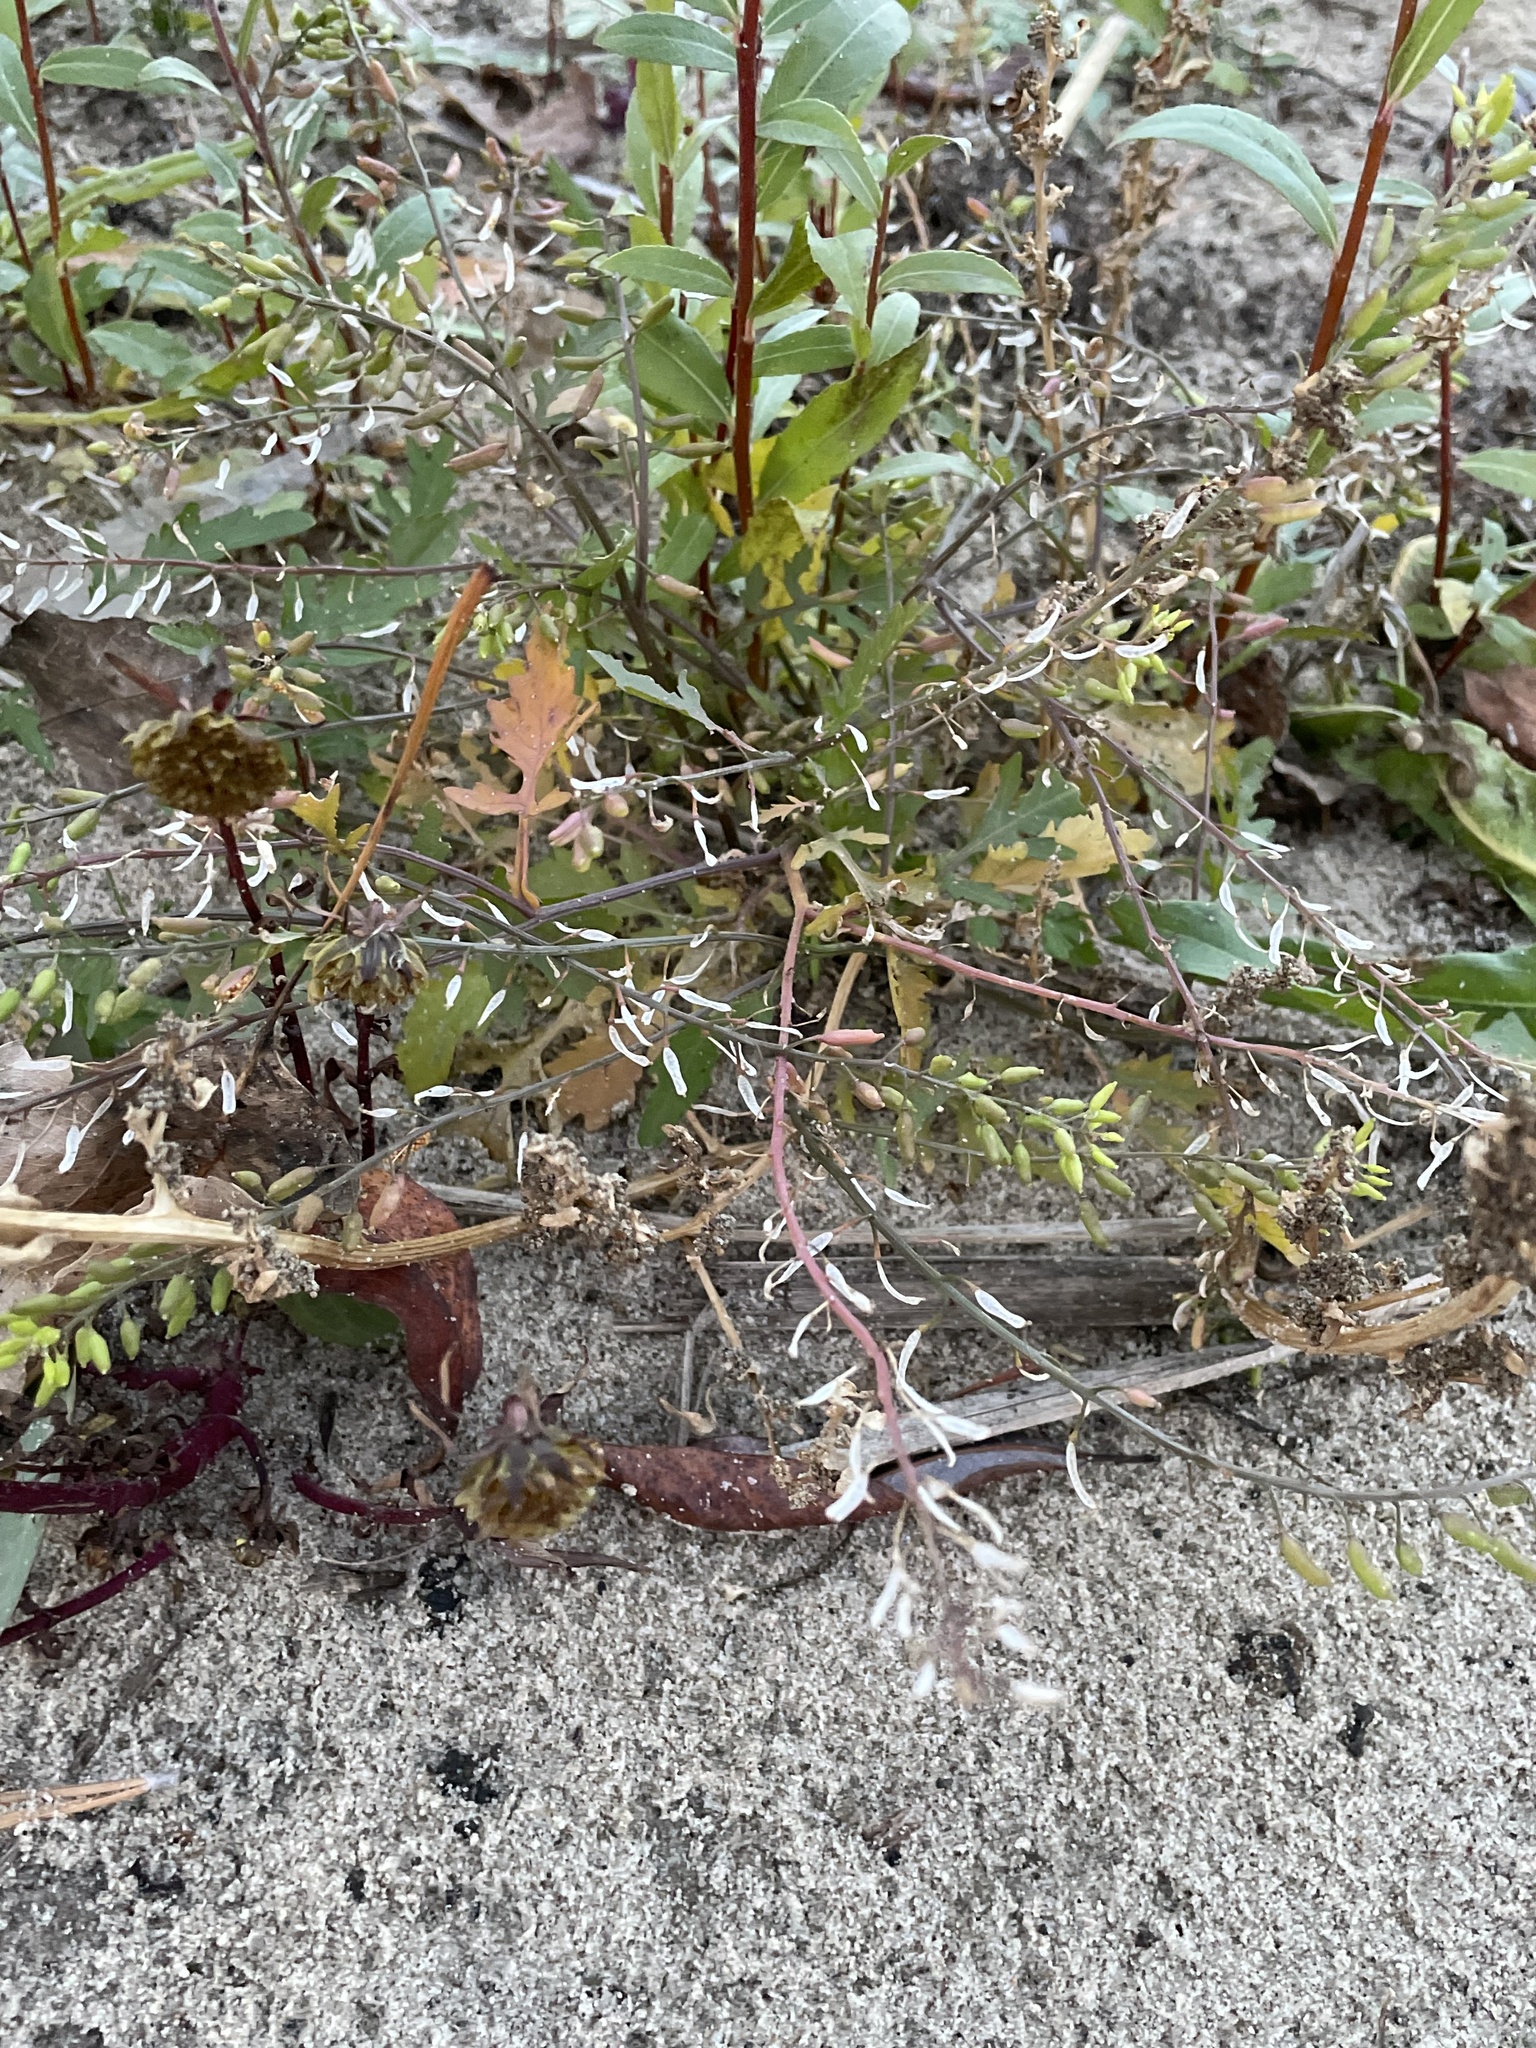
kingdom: Plantae
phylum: Tracheophyta
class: Magnoliopsida
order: Brassicales
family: Brassicaceae
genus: Rorippa
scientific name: Rorippa palustris
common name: Marsh yellow-cress
